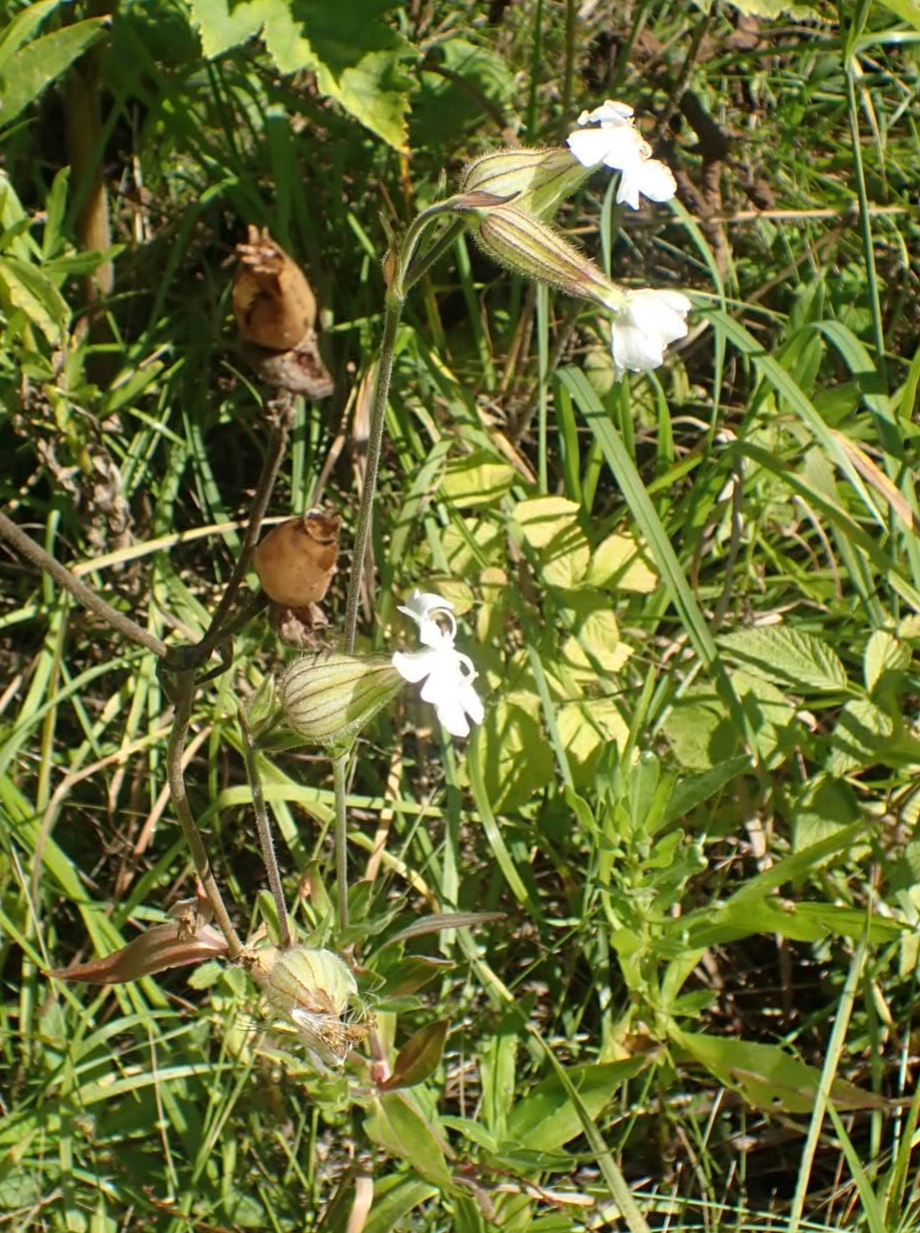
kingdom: Plantae
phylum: Tracheophyta
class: Magnoliopsida
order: Caryophyllales
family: Caryophyllaceae
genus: Silene
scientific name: Silene latifolia
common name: White campion
